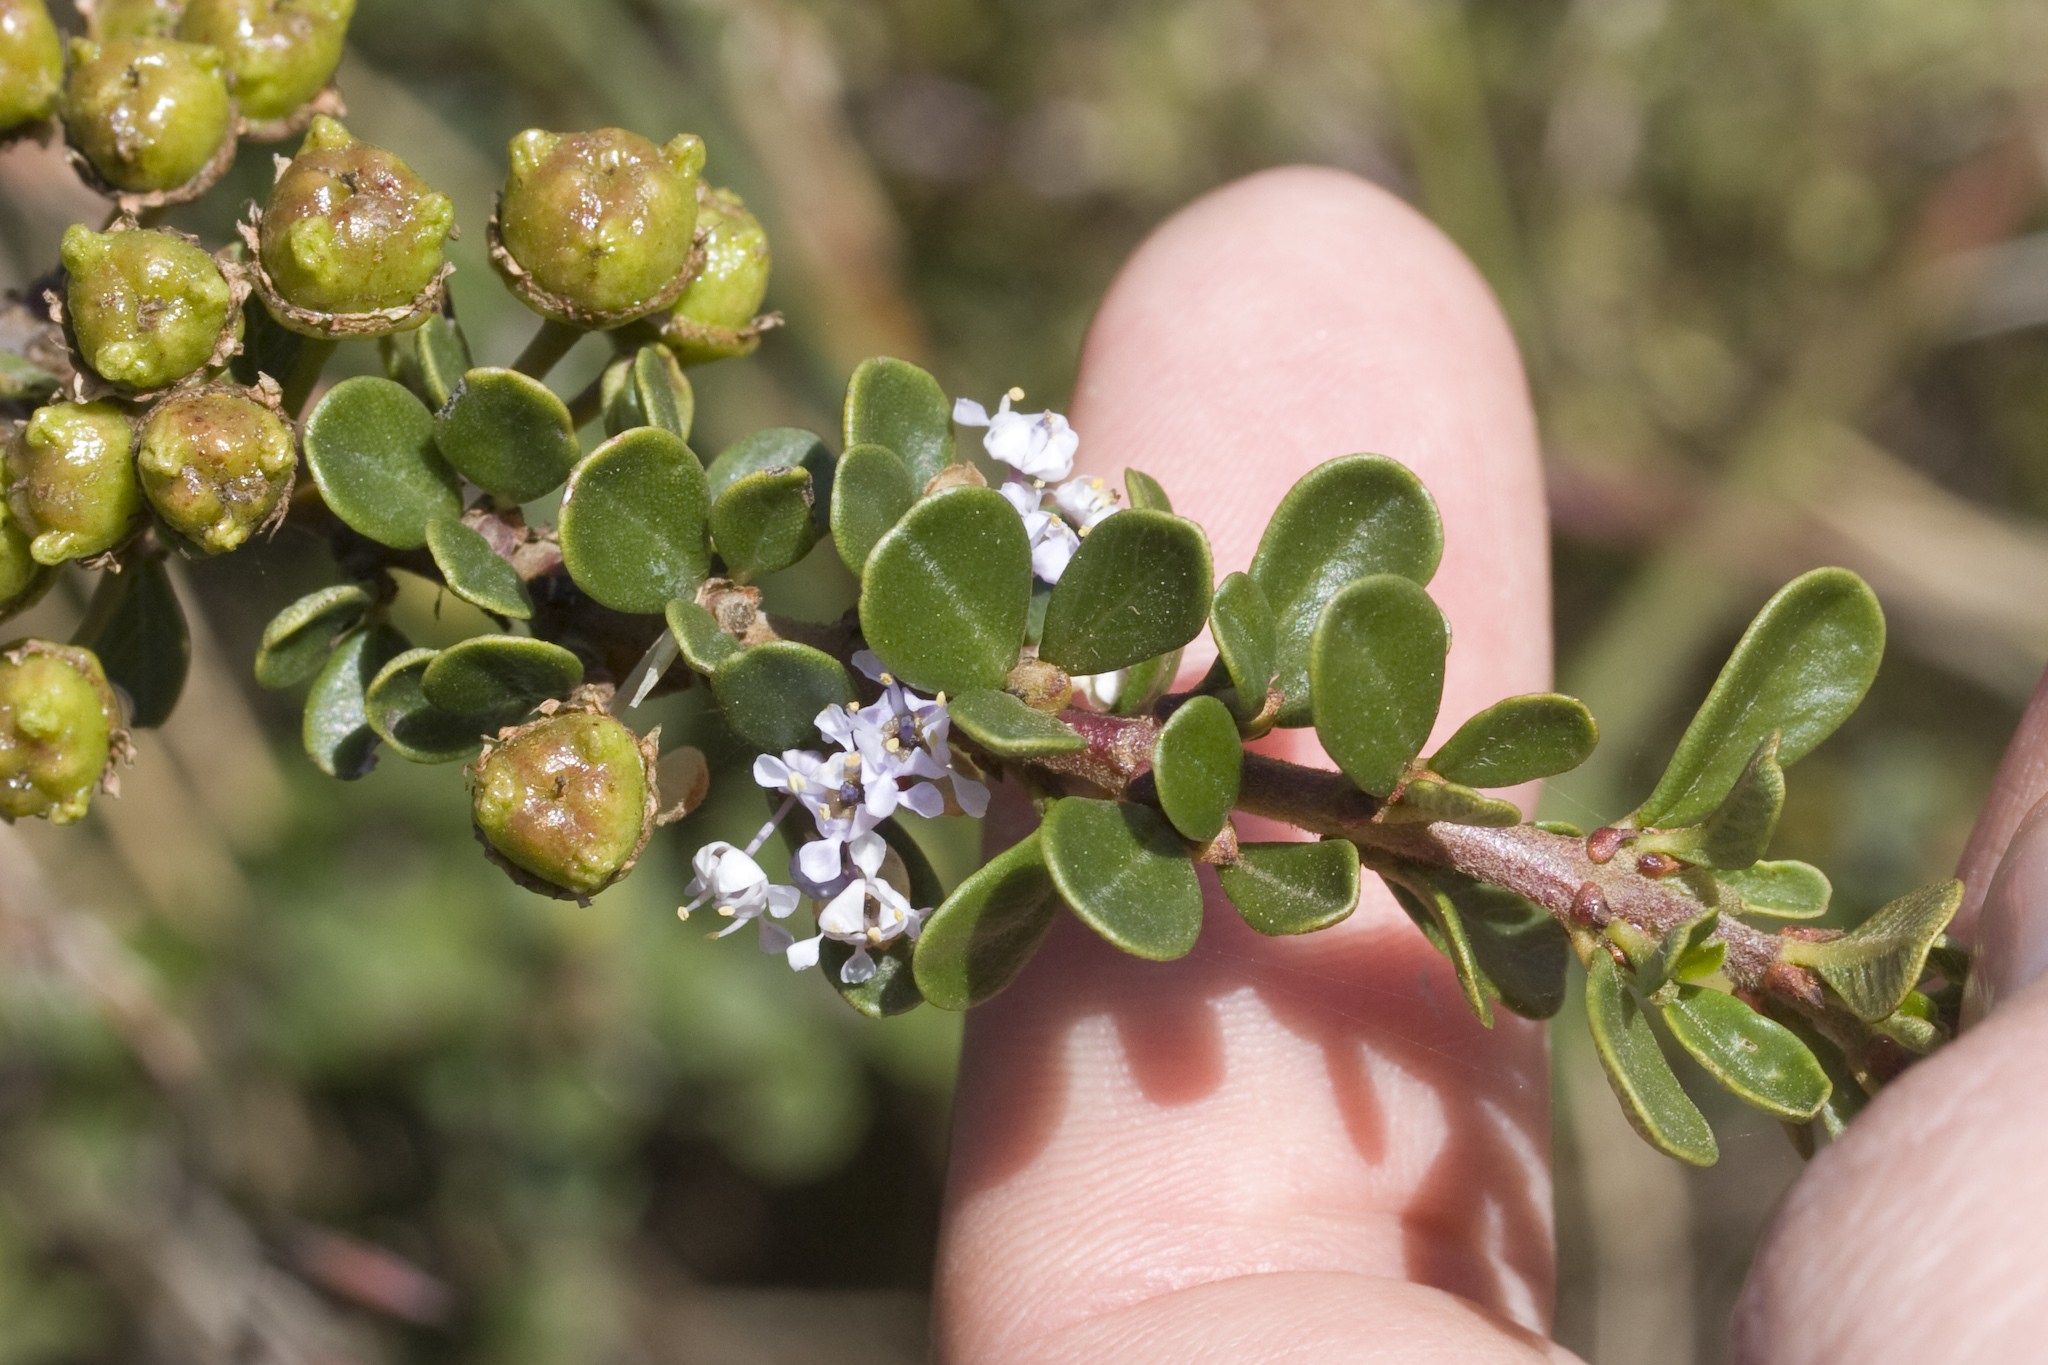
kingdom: Plantae
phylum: Tracheophyta
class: Magnoliopsida
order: Rosales
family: Rhamnaceae
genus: Ceanothus
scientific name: Ceanothus cuneatus
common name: Cuneate ceanothus
